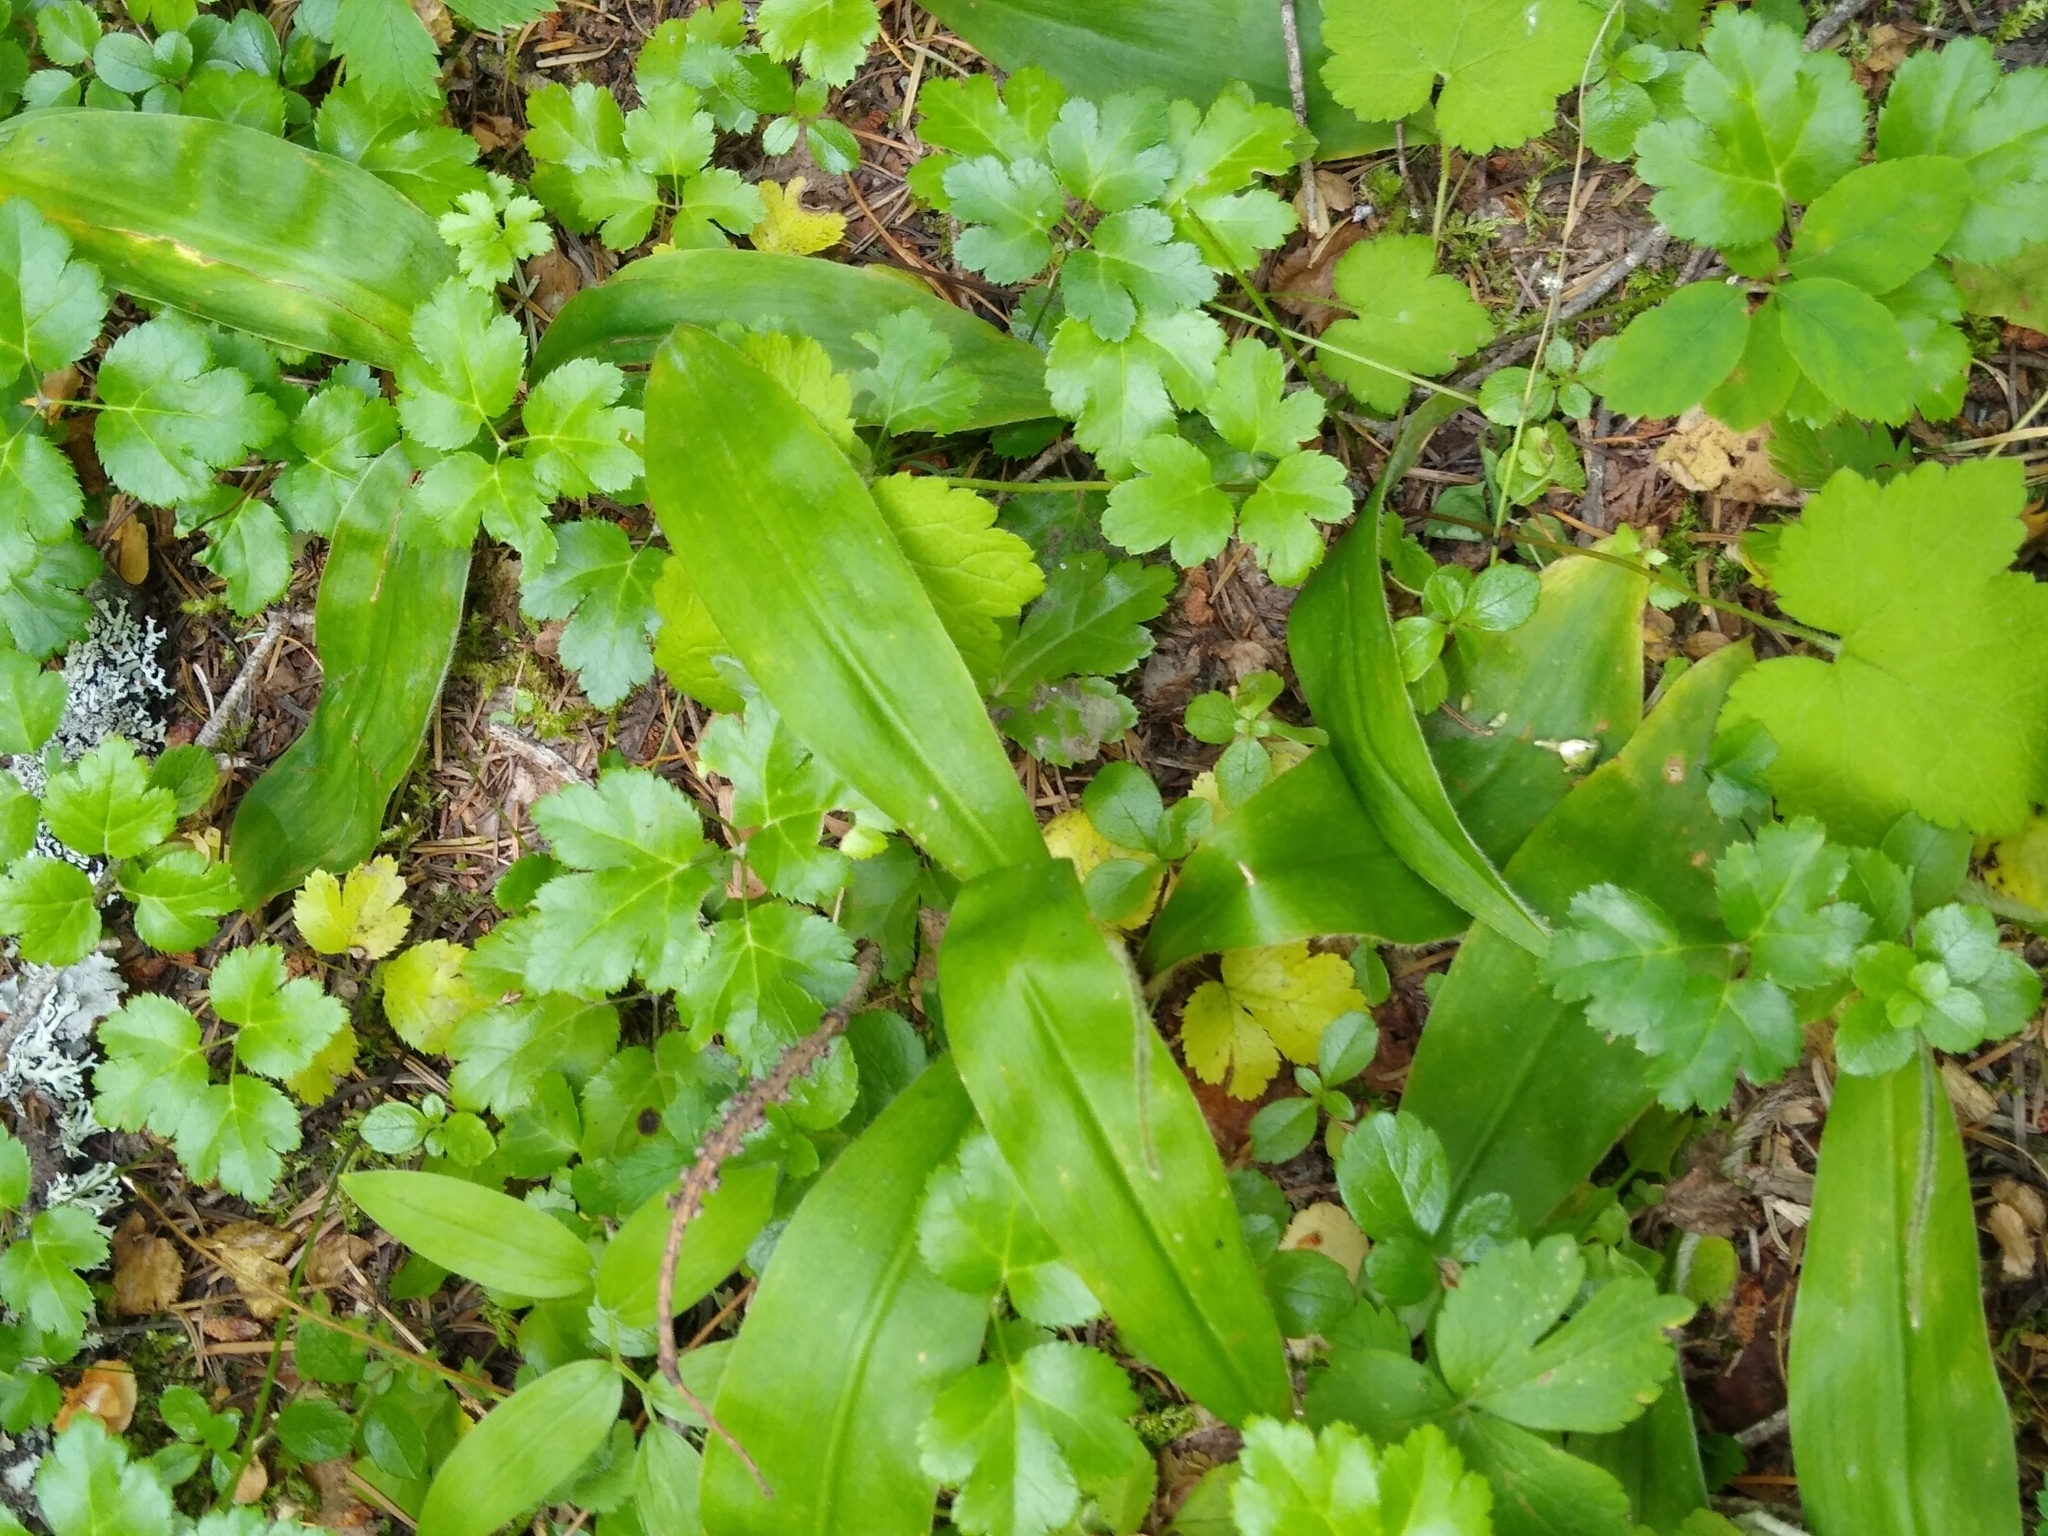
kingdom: Plantae
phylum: Tracheophyta
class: Liliopsida
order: Liliales
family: Liliaceae
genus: Clintonia
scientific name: Clintonia uniflora
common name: Queen's cup
